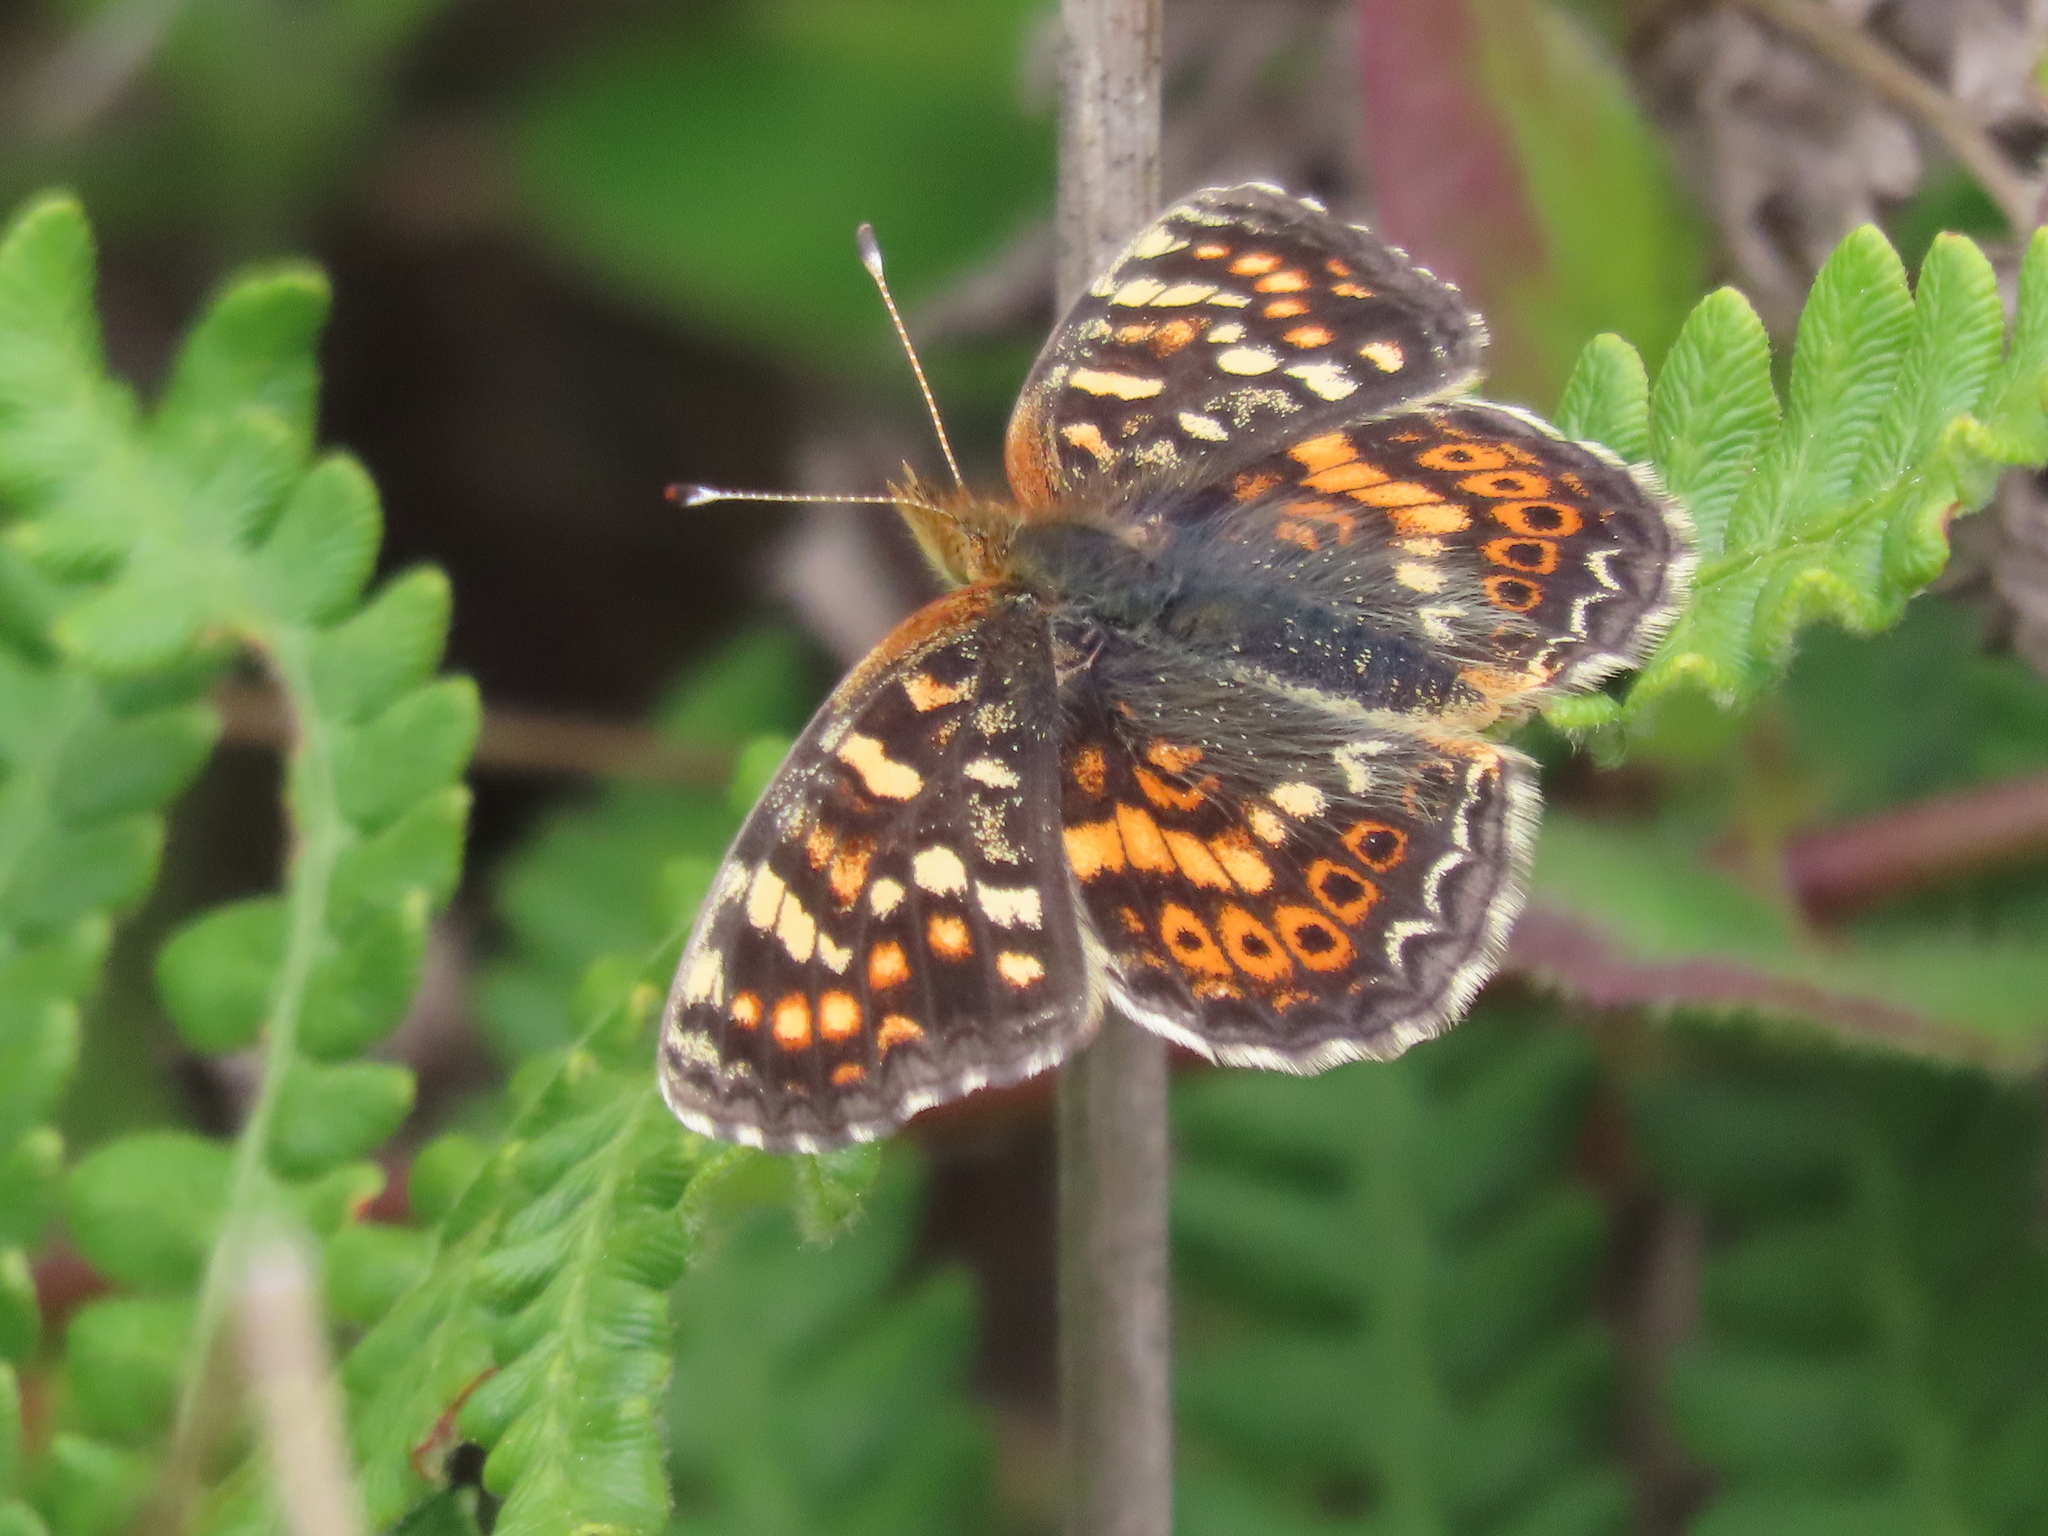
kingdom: Animalia
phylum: Arthropoda
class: Insecta
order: Lepidoptera
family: Nymphalidae
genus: Phyciodes
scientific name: Phyciodes tharos
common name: Pearl crescent
